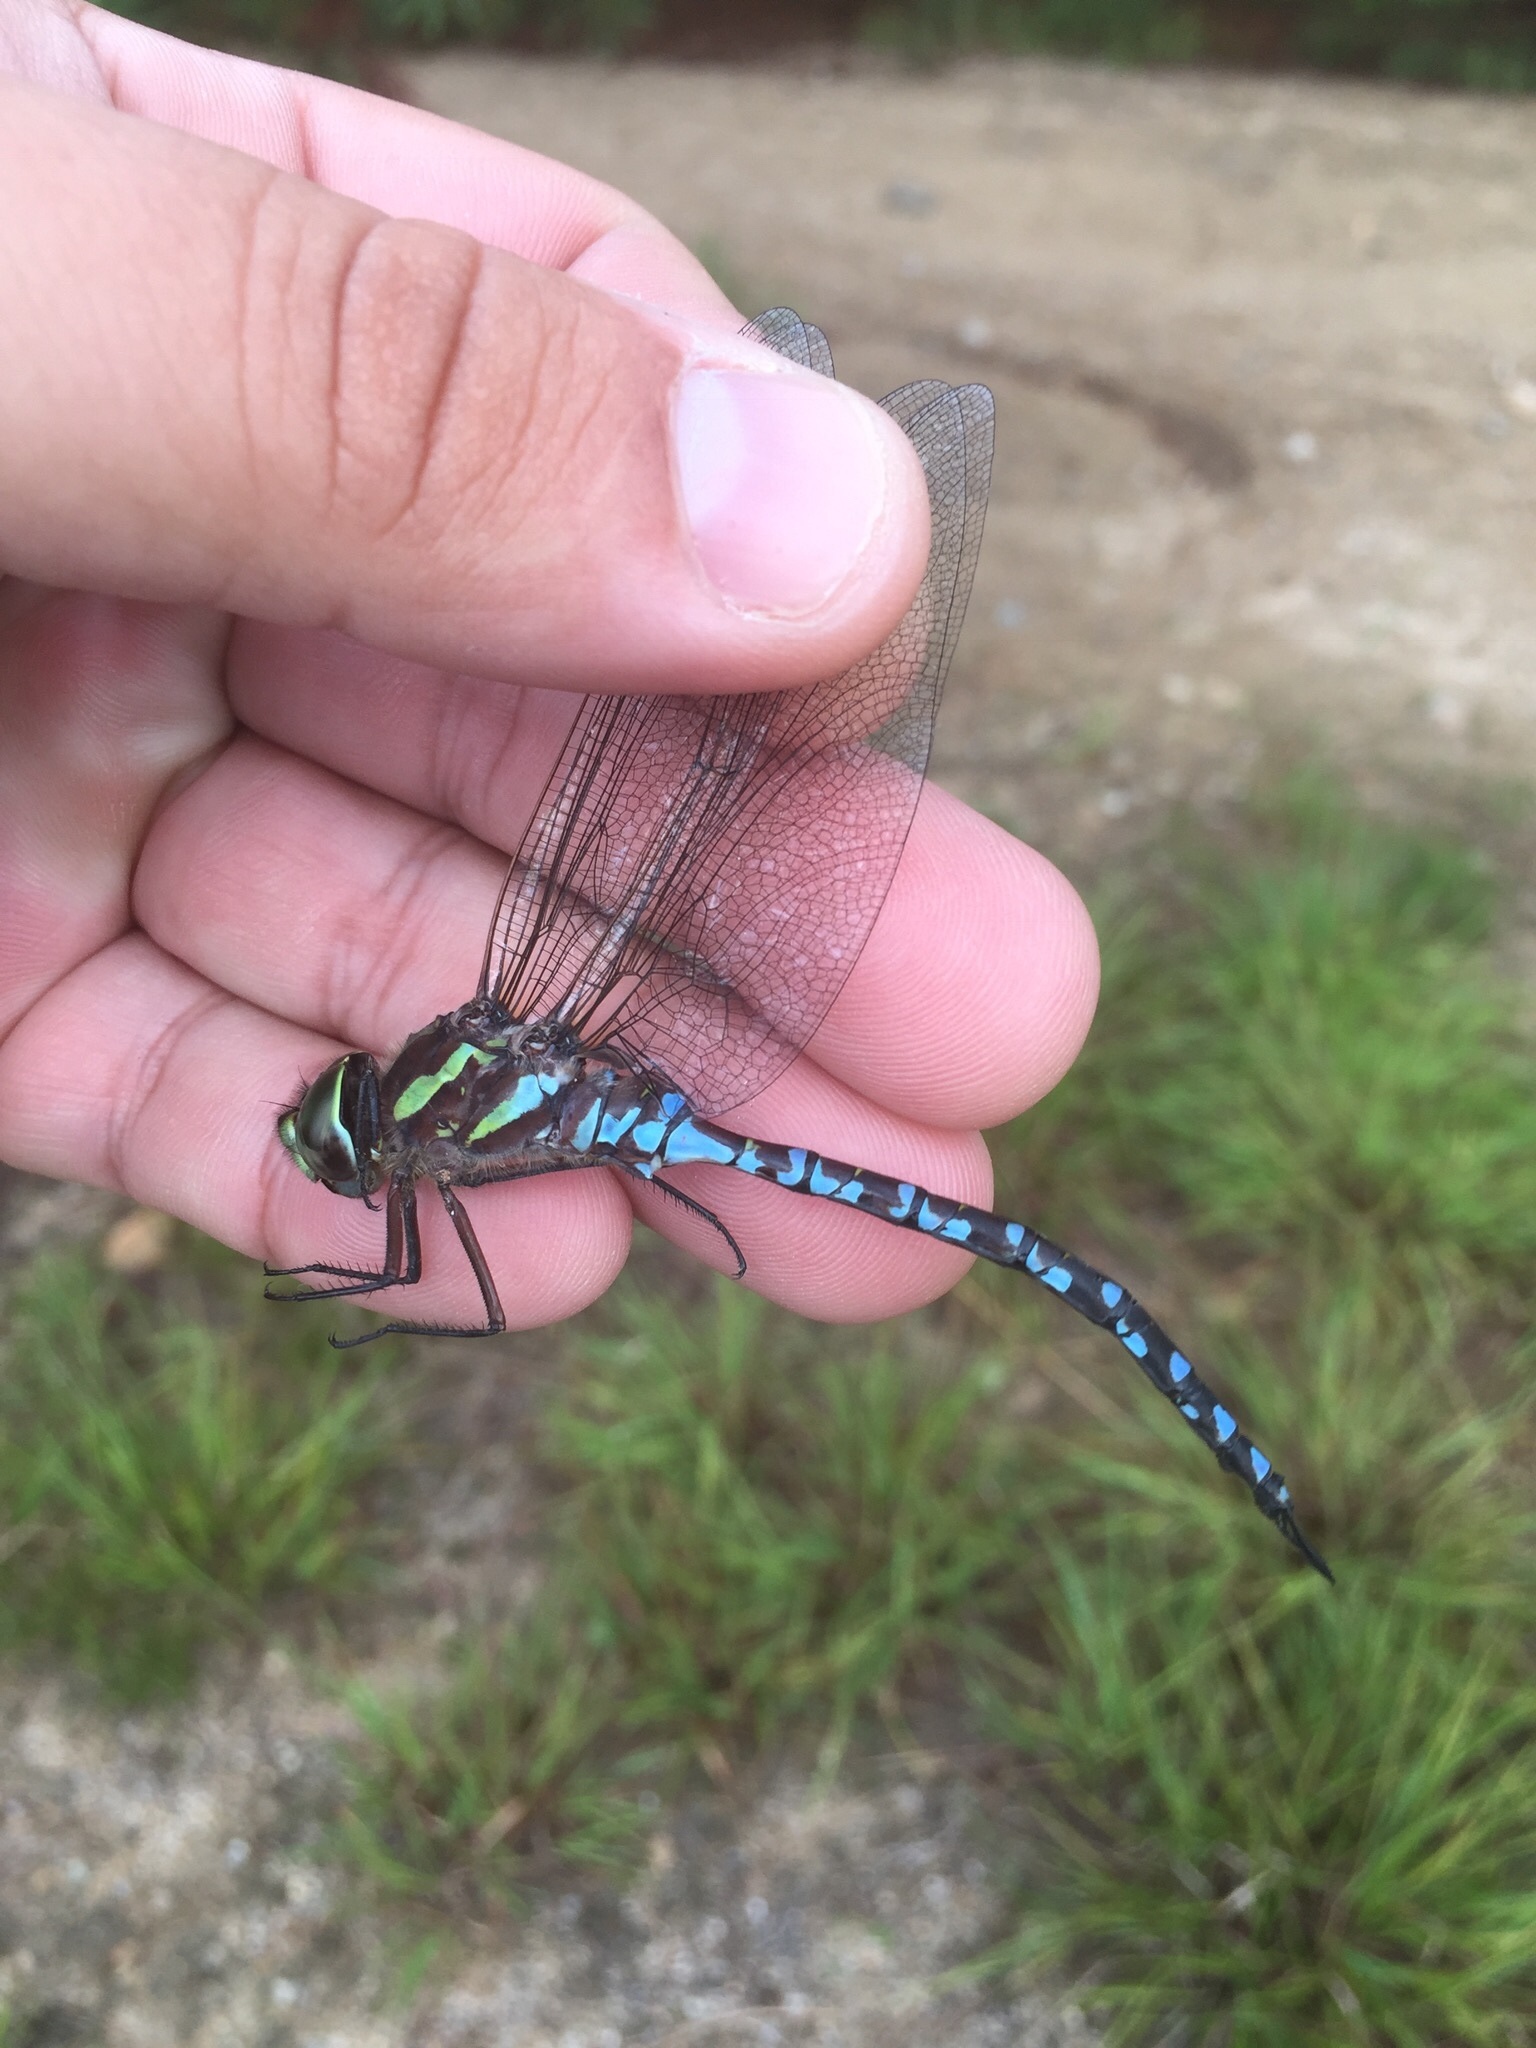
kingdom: Animalia
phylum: Arthropoda
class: Insecta
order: Odonata
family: Aeshnidae
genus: Aeshna
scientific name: Aeshna verticalis
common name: Green-striped darner
